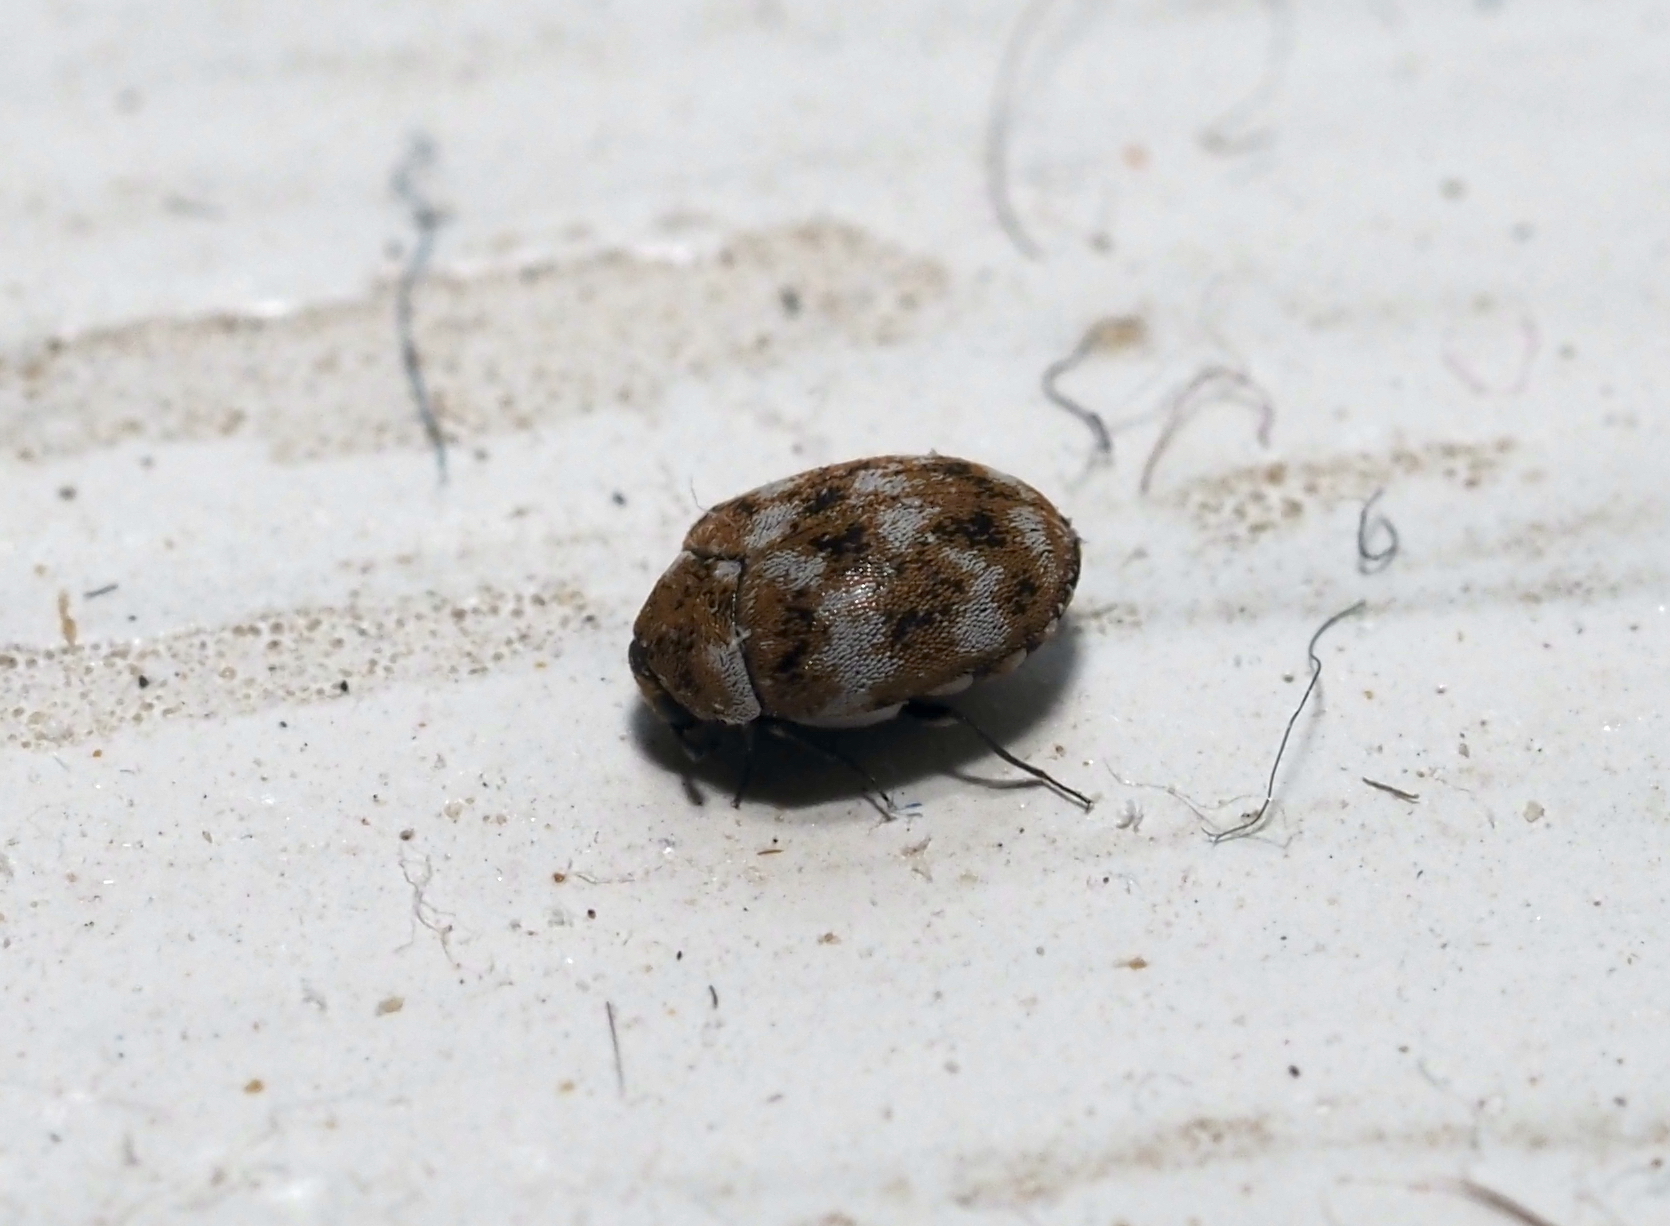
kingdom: Animalia
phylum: Arthropoda
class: Insecta
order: Coleoptera
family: Dermestidae
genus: Anthrenus
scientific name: Anthrenus verbasci
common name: Varied carpet beetle
